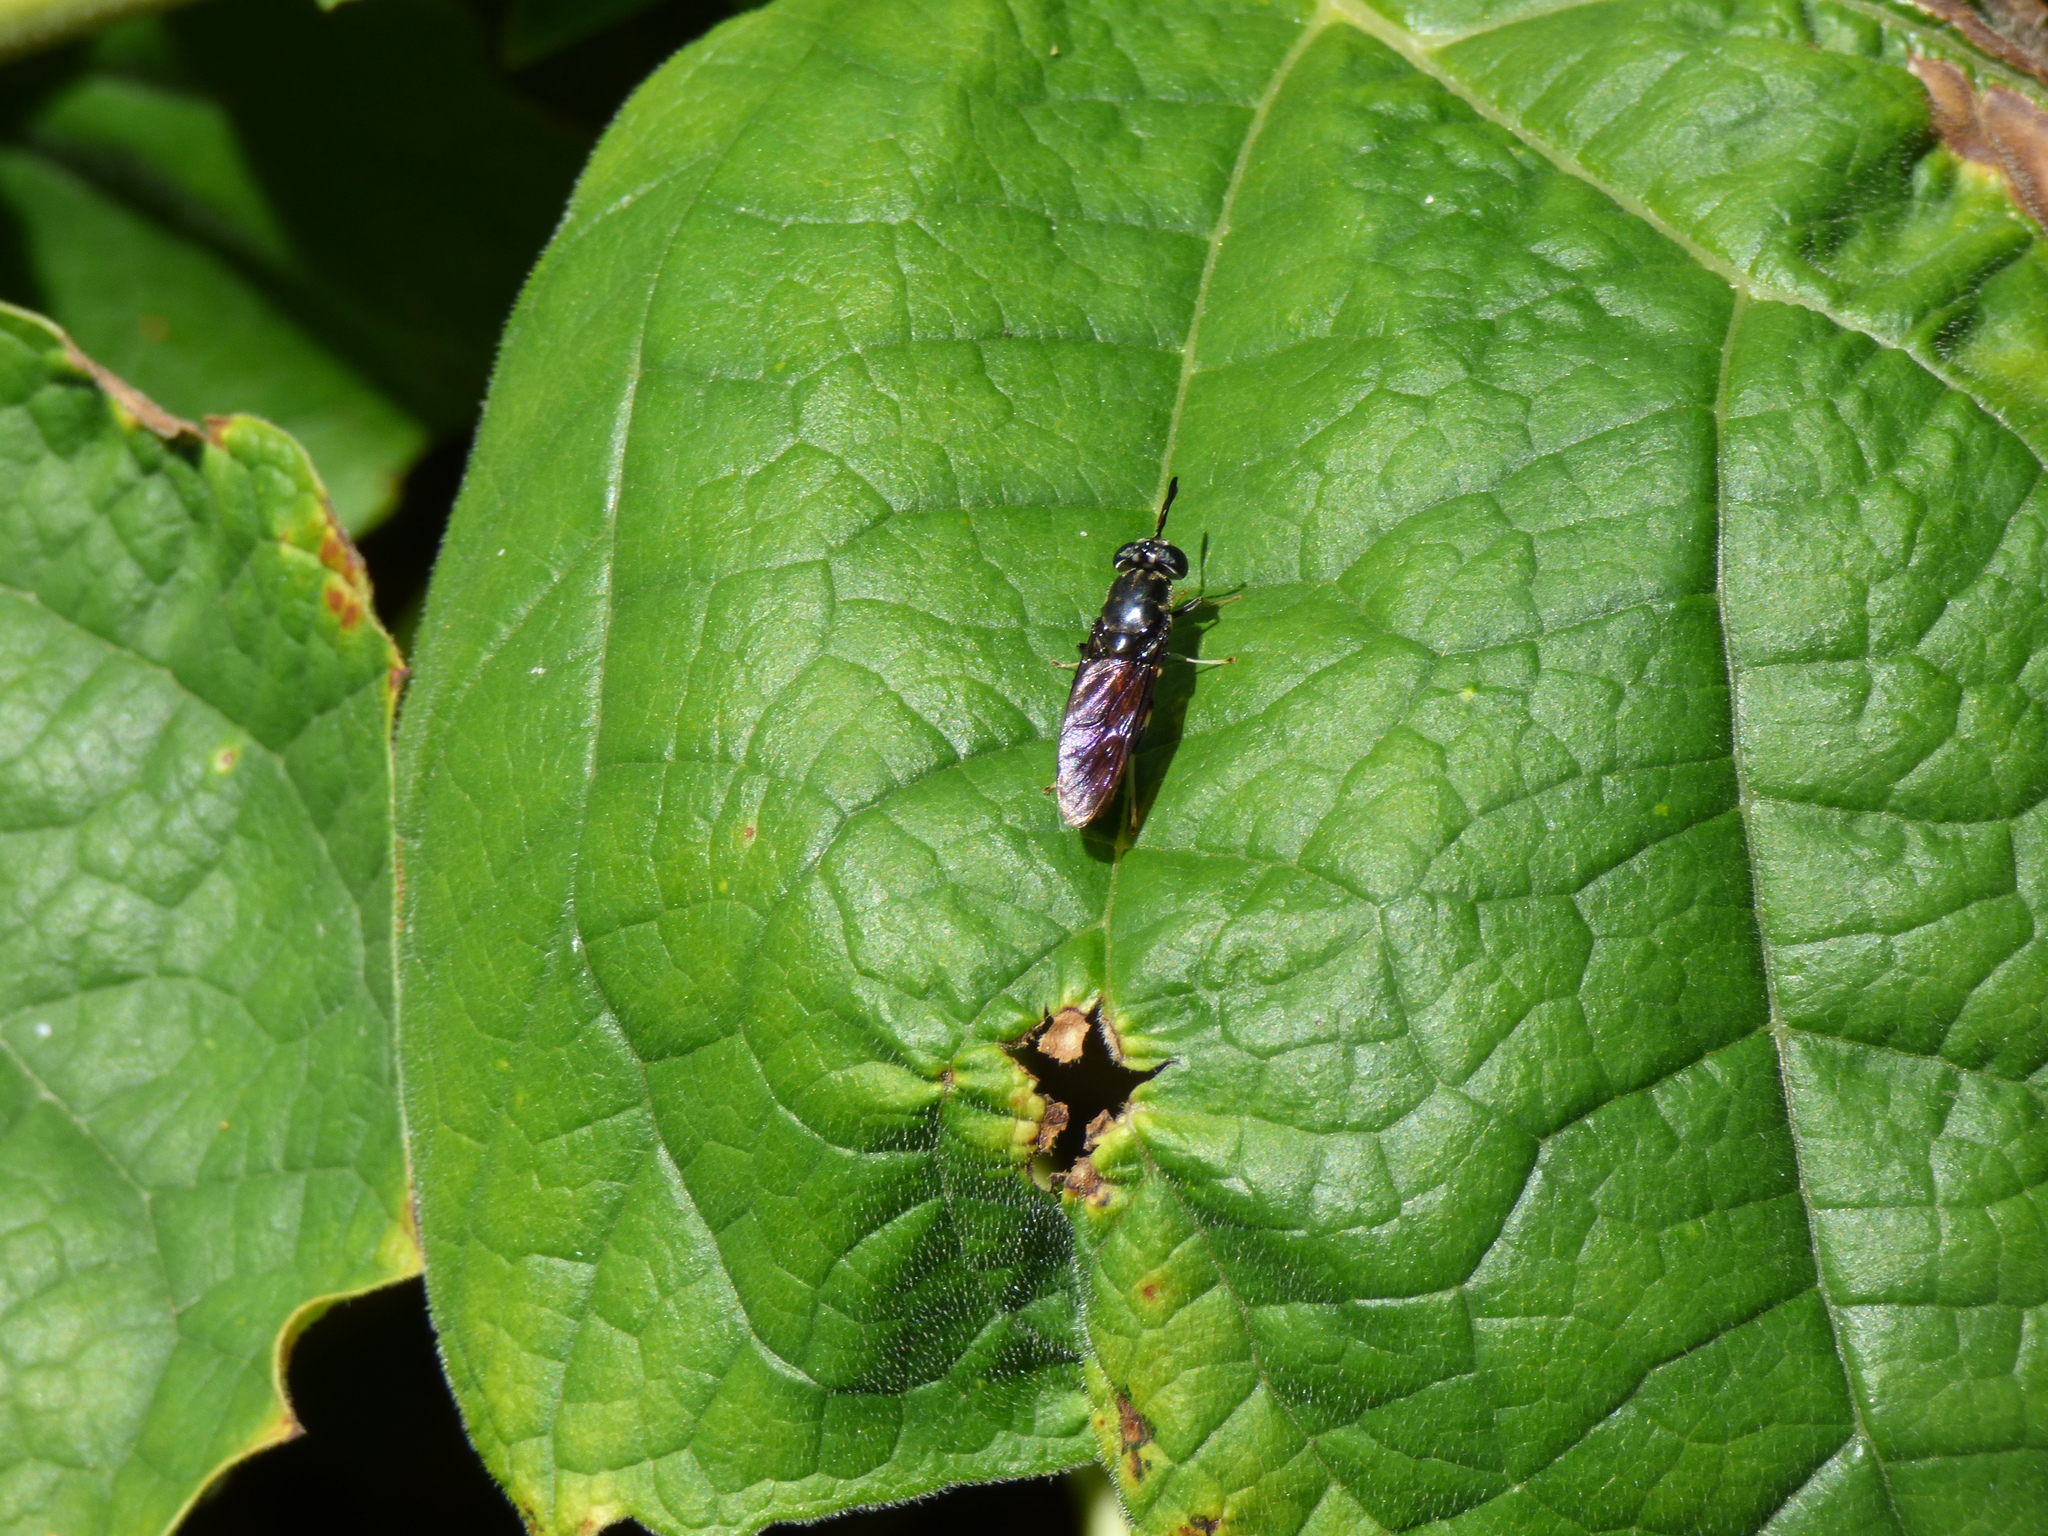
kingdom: Animalia
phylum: Arthropoda
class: Insecta
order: Diptera
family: Stratiomyidae
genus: Hermetia
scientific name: Hermetia illucens
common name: Black soldier fly
